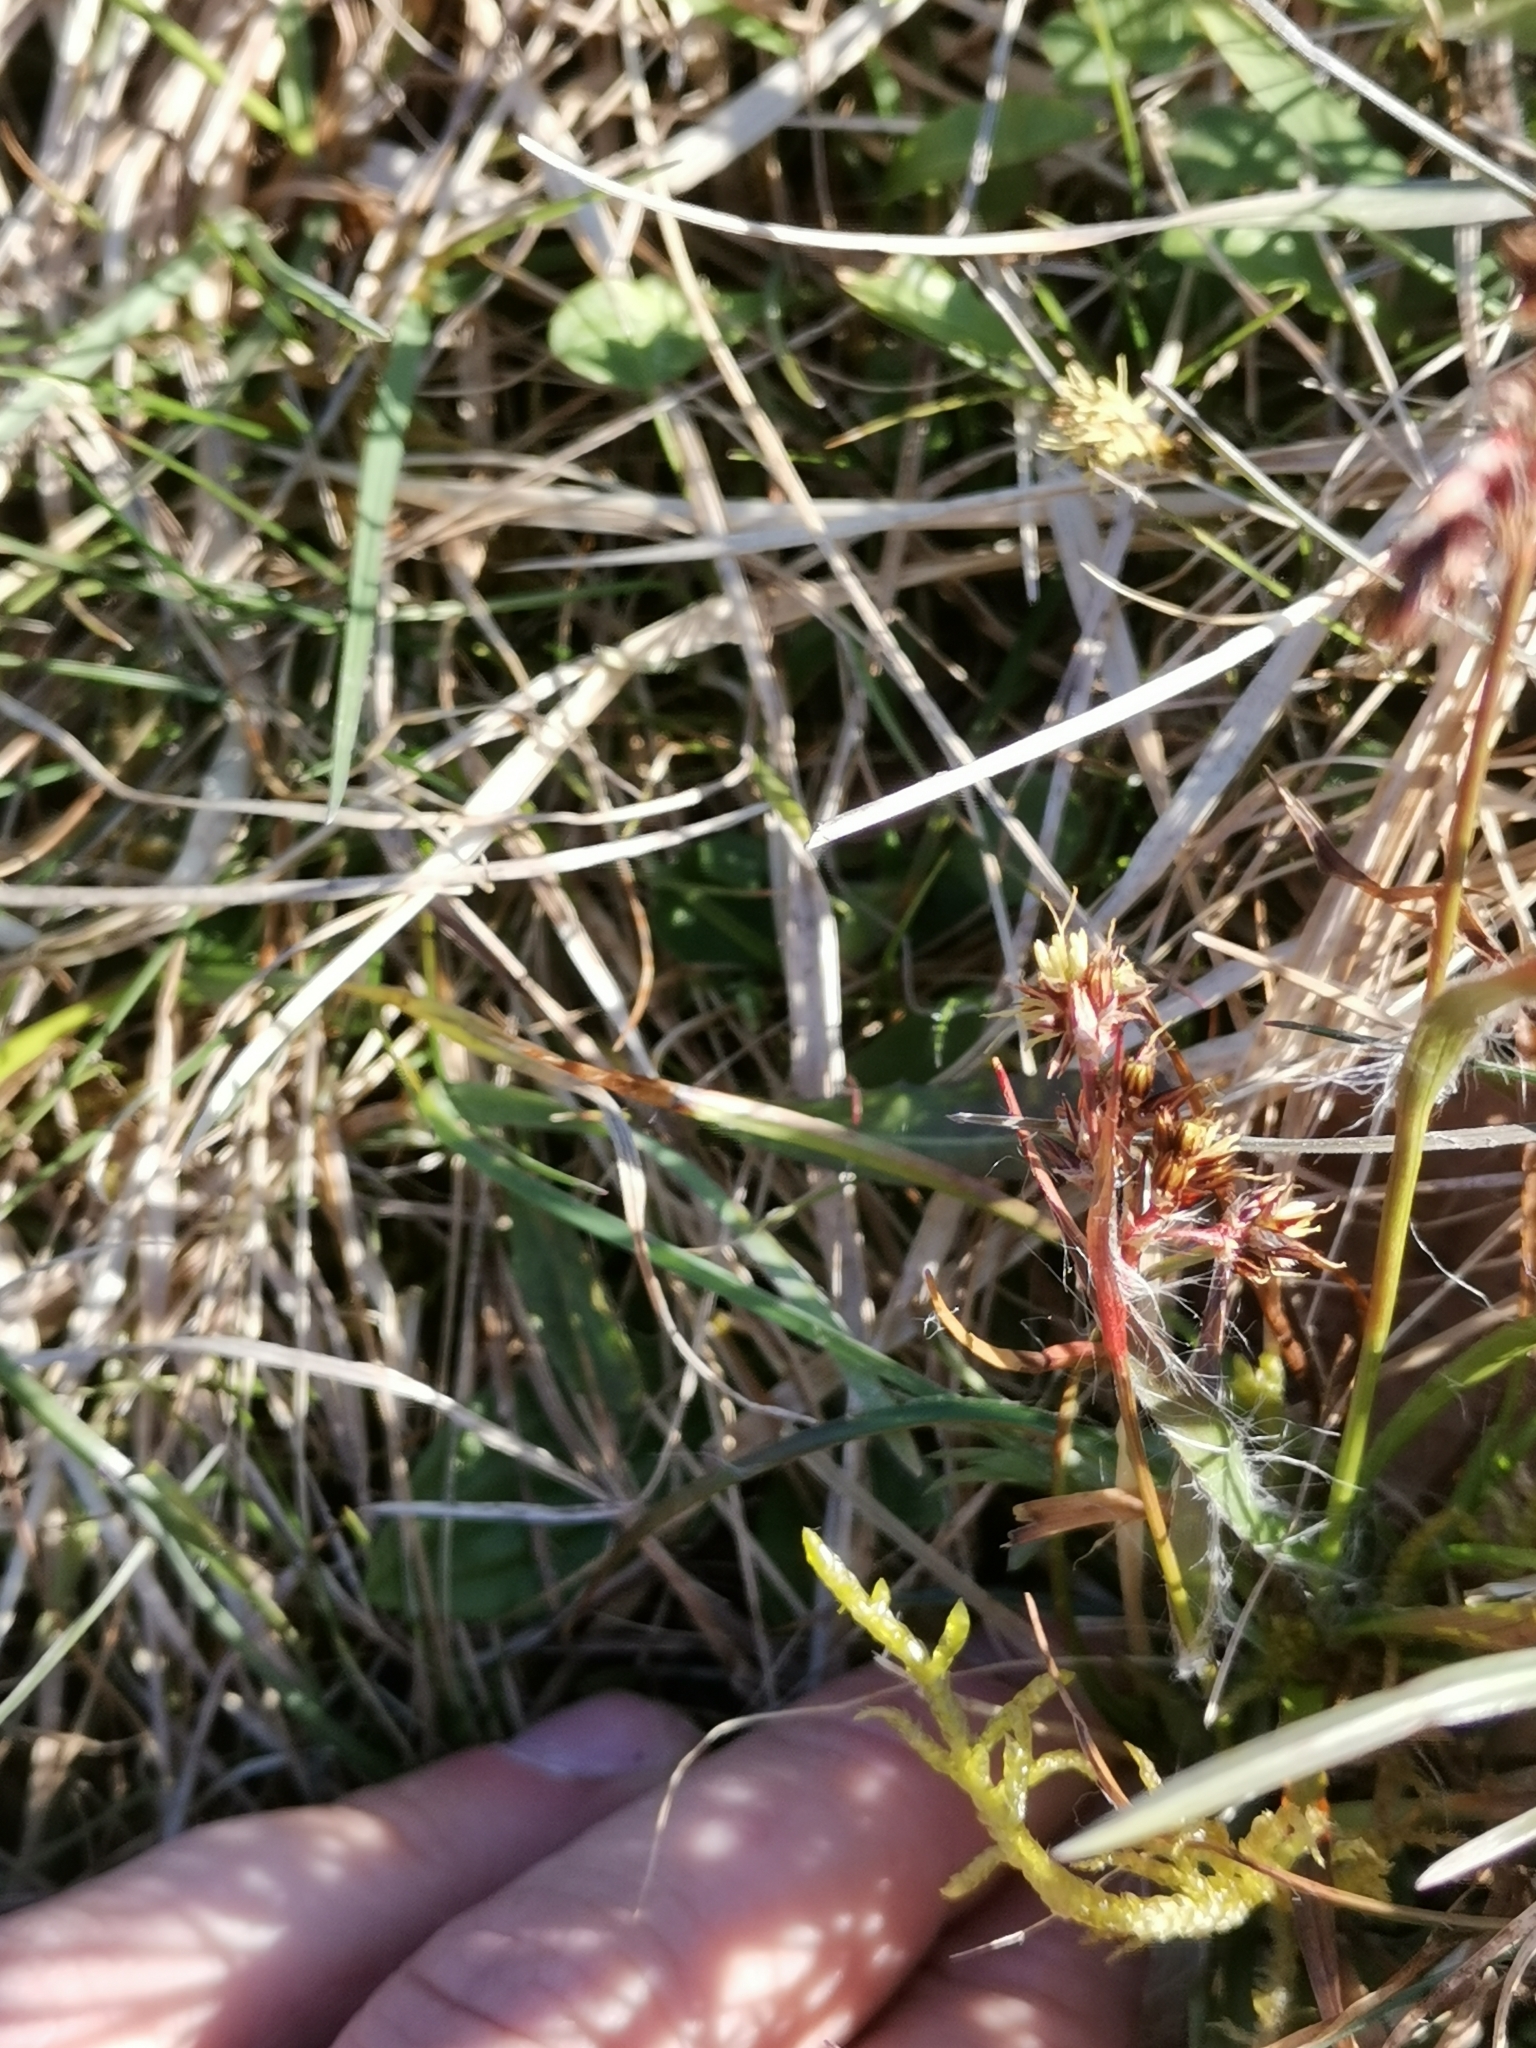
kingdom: Plantae
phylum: Tracheophyta
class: Liliopsida
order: Poales
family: Juncaceae
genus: Luzula
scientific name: Luzula campestris
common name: Field wood-rush
